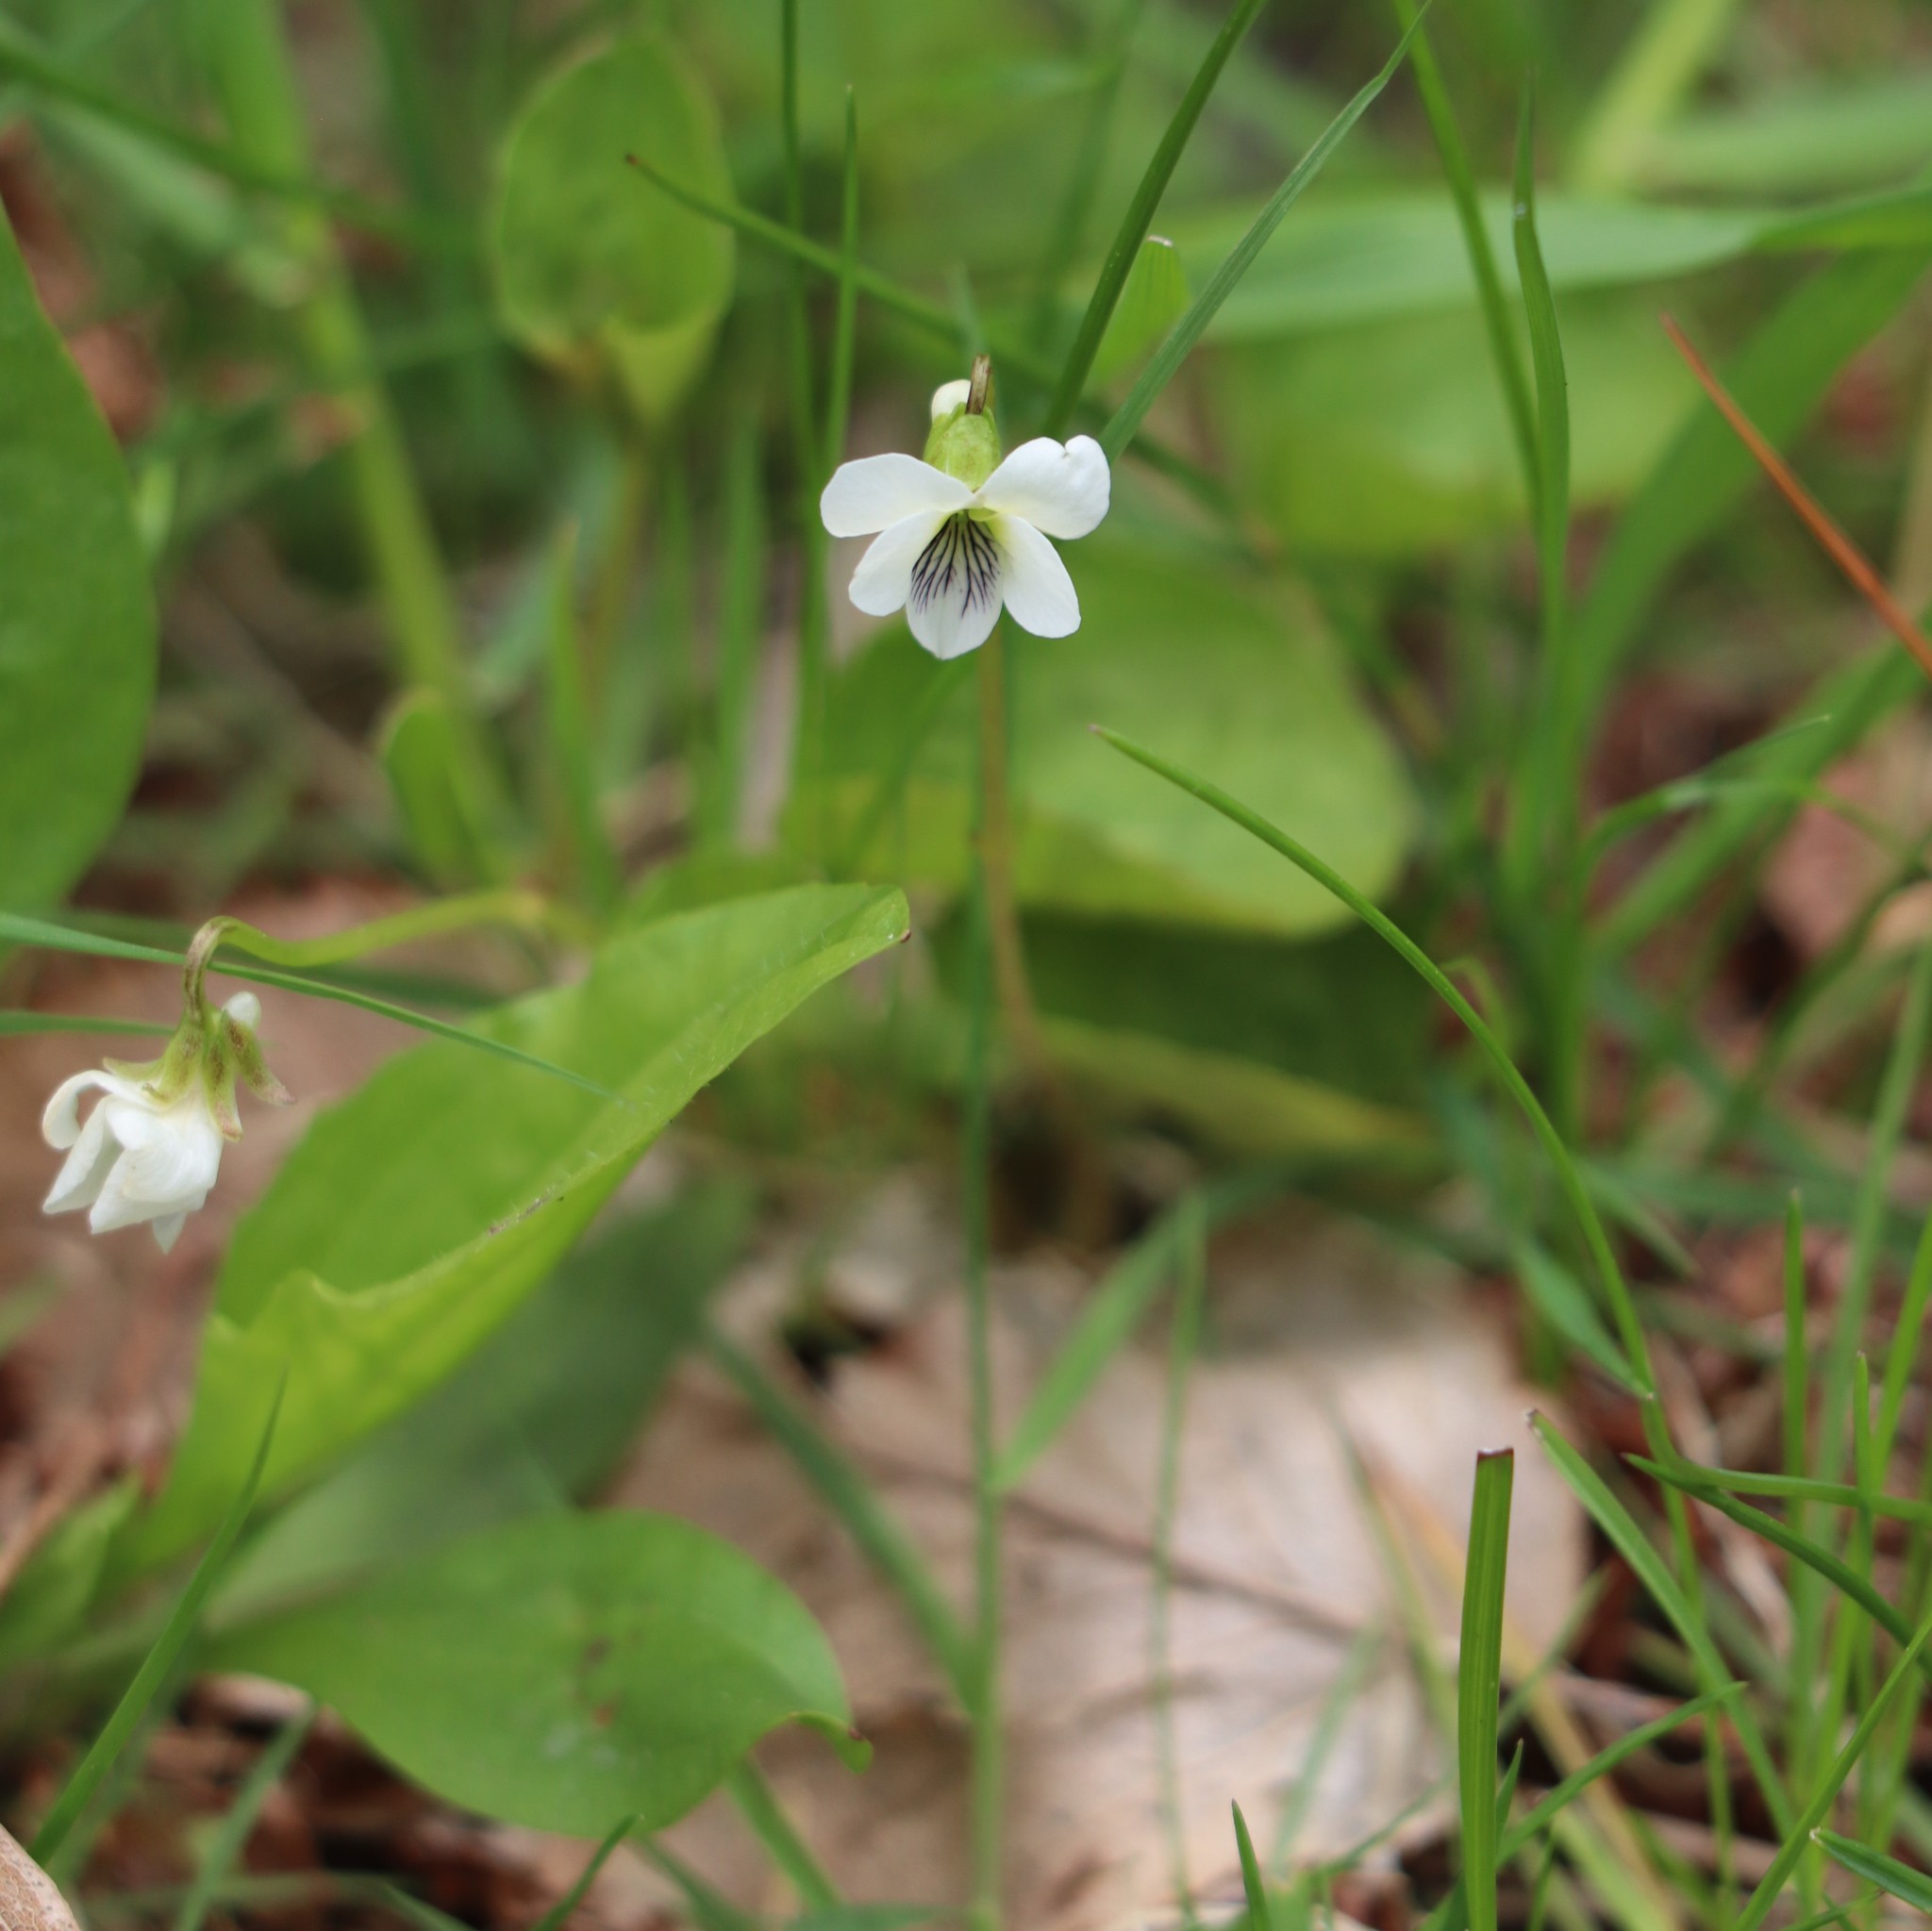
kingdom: Plantae
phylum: Tracheophyta
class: Magnoliopsida
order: Malpighiales
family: Violaceae
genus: Viola
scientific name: Viola blanda
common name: Sweet white violet
